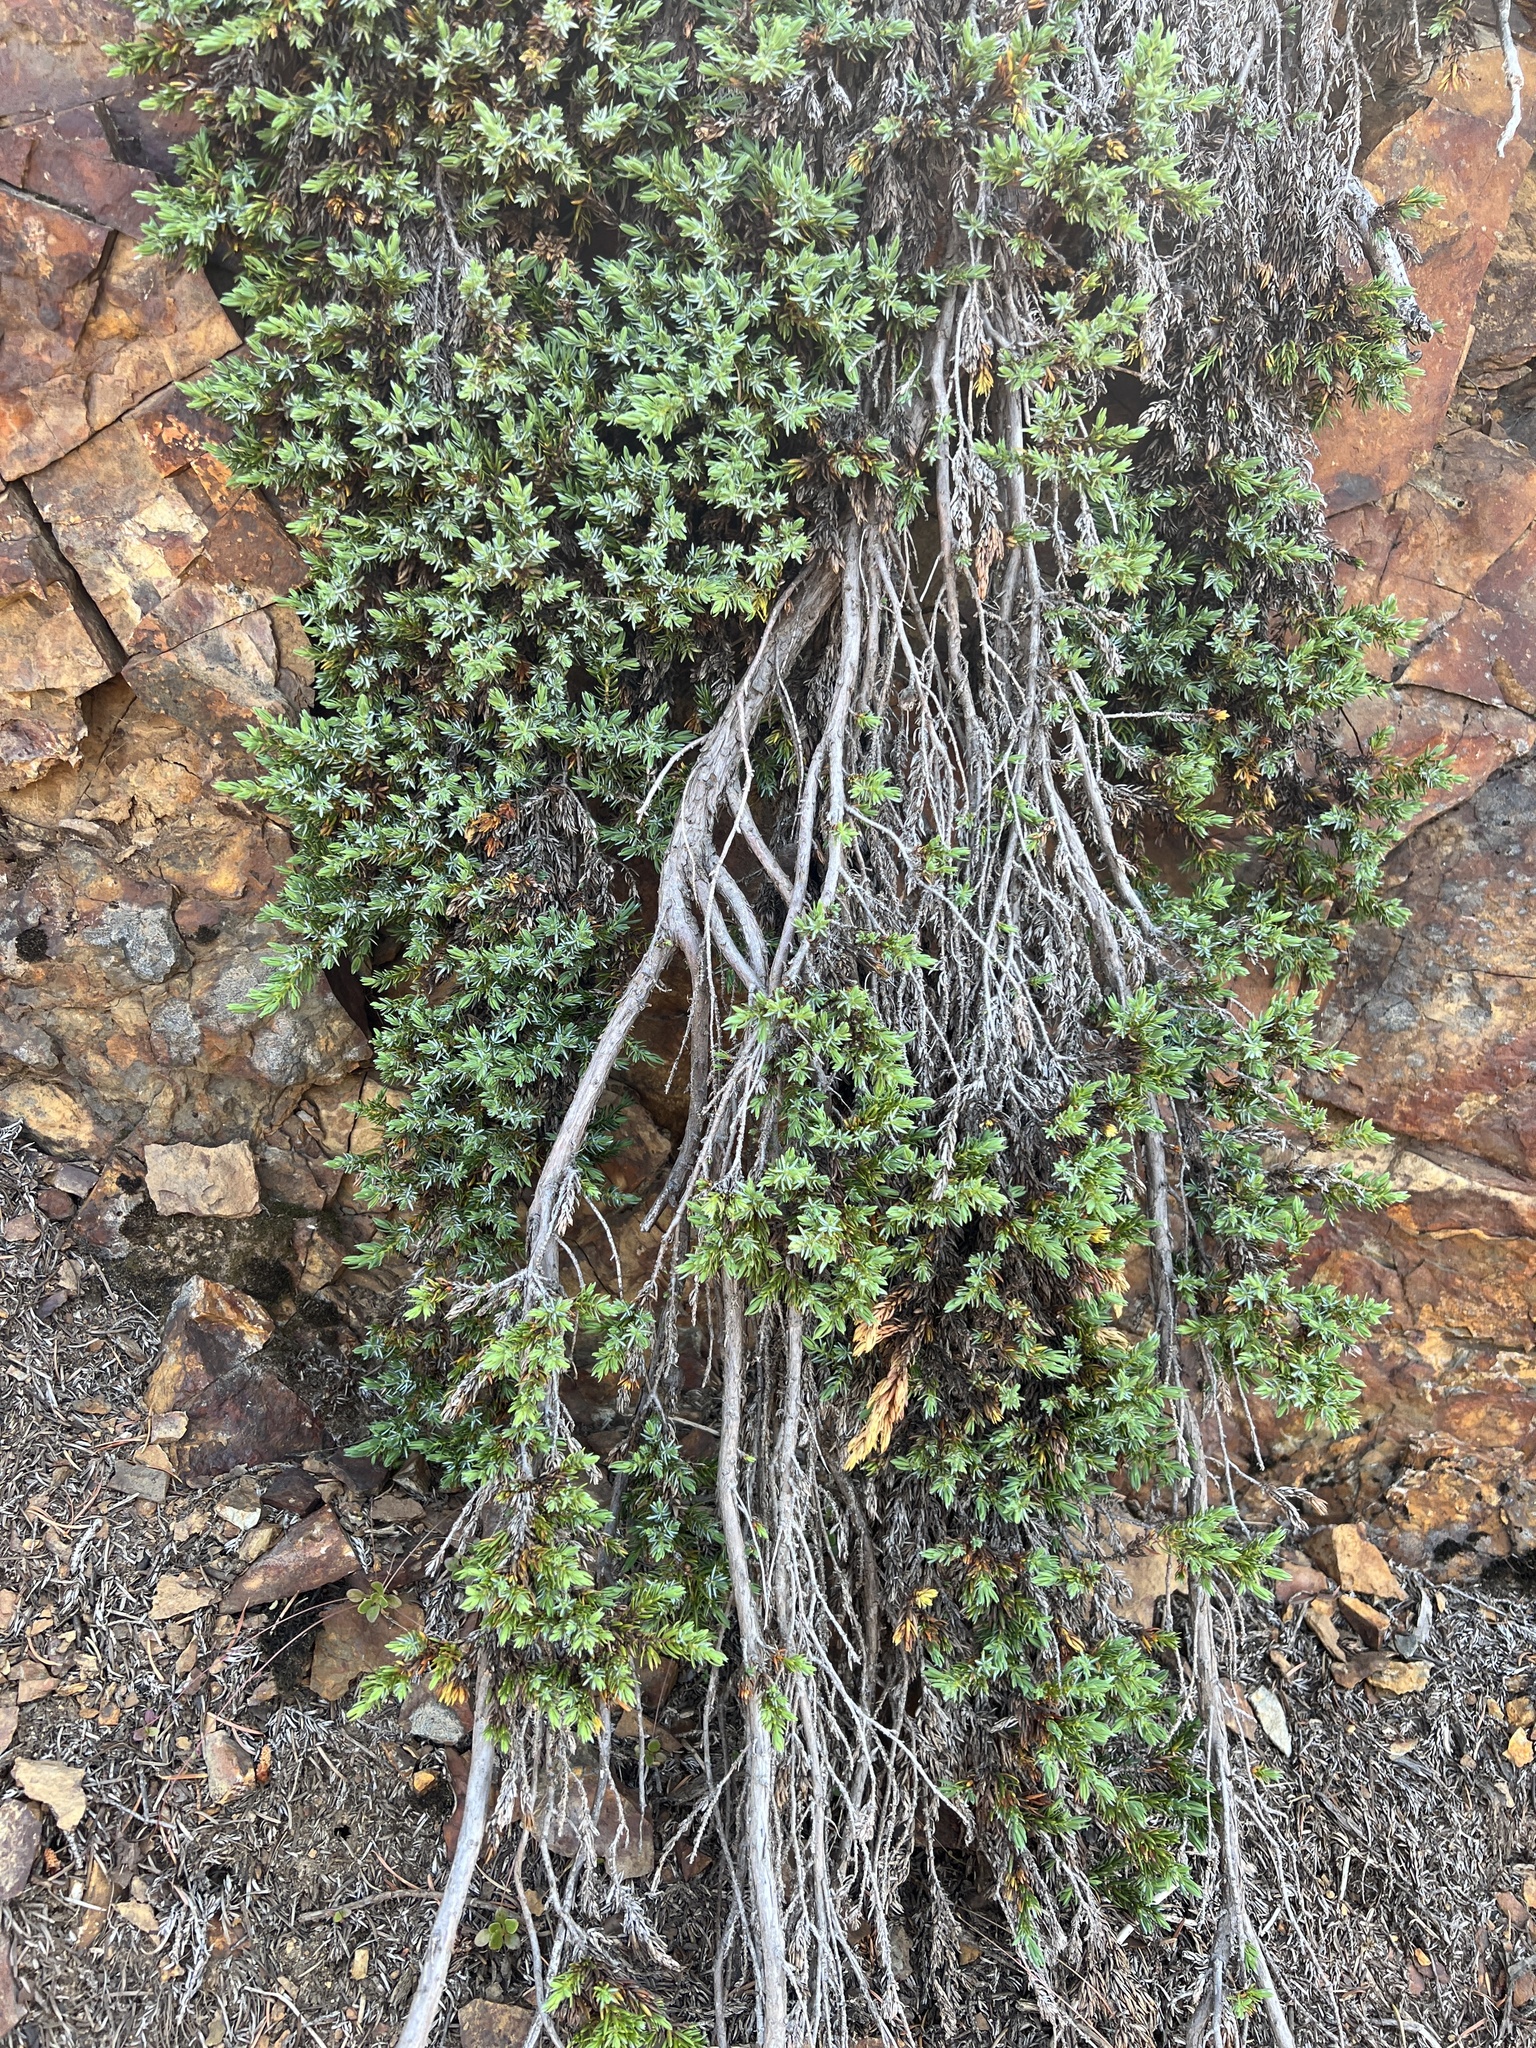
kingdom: Plantae
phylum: Tracheophyta
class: Pinopsida
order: Pinales
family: Cupressaceae
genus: Juniperus
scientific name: Juniperus communis
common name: Common juniper
